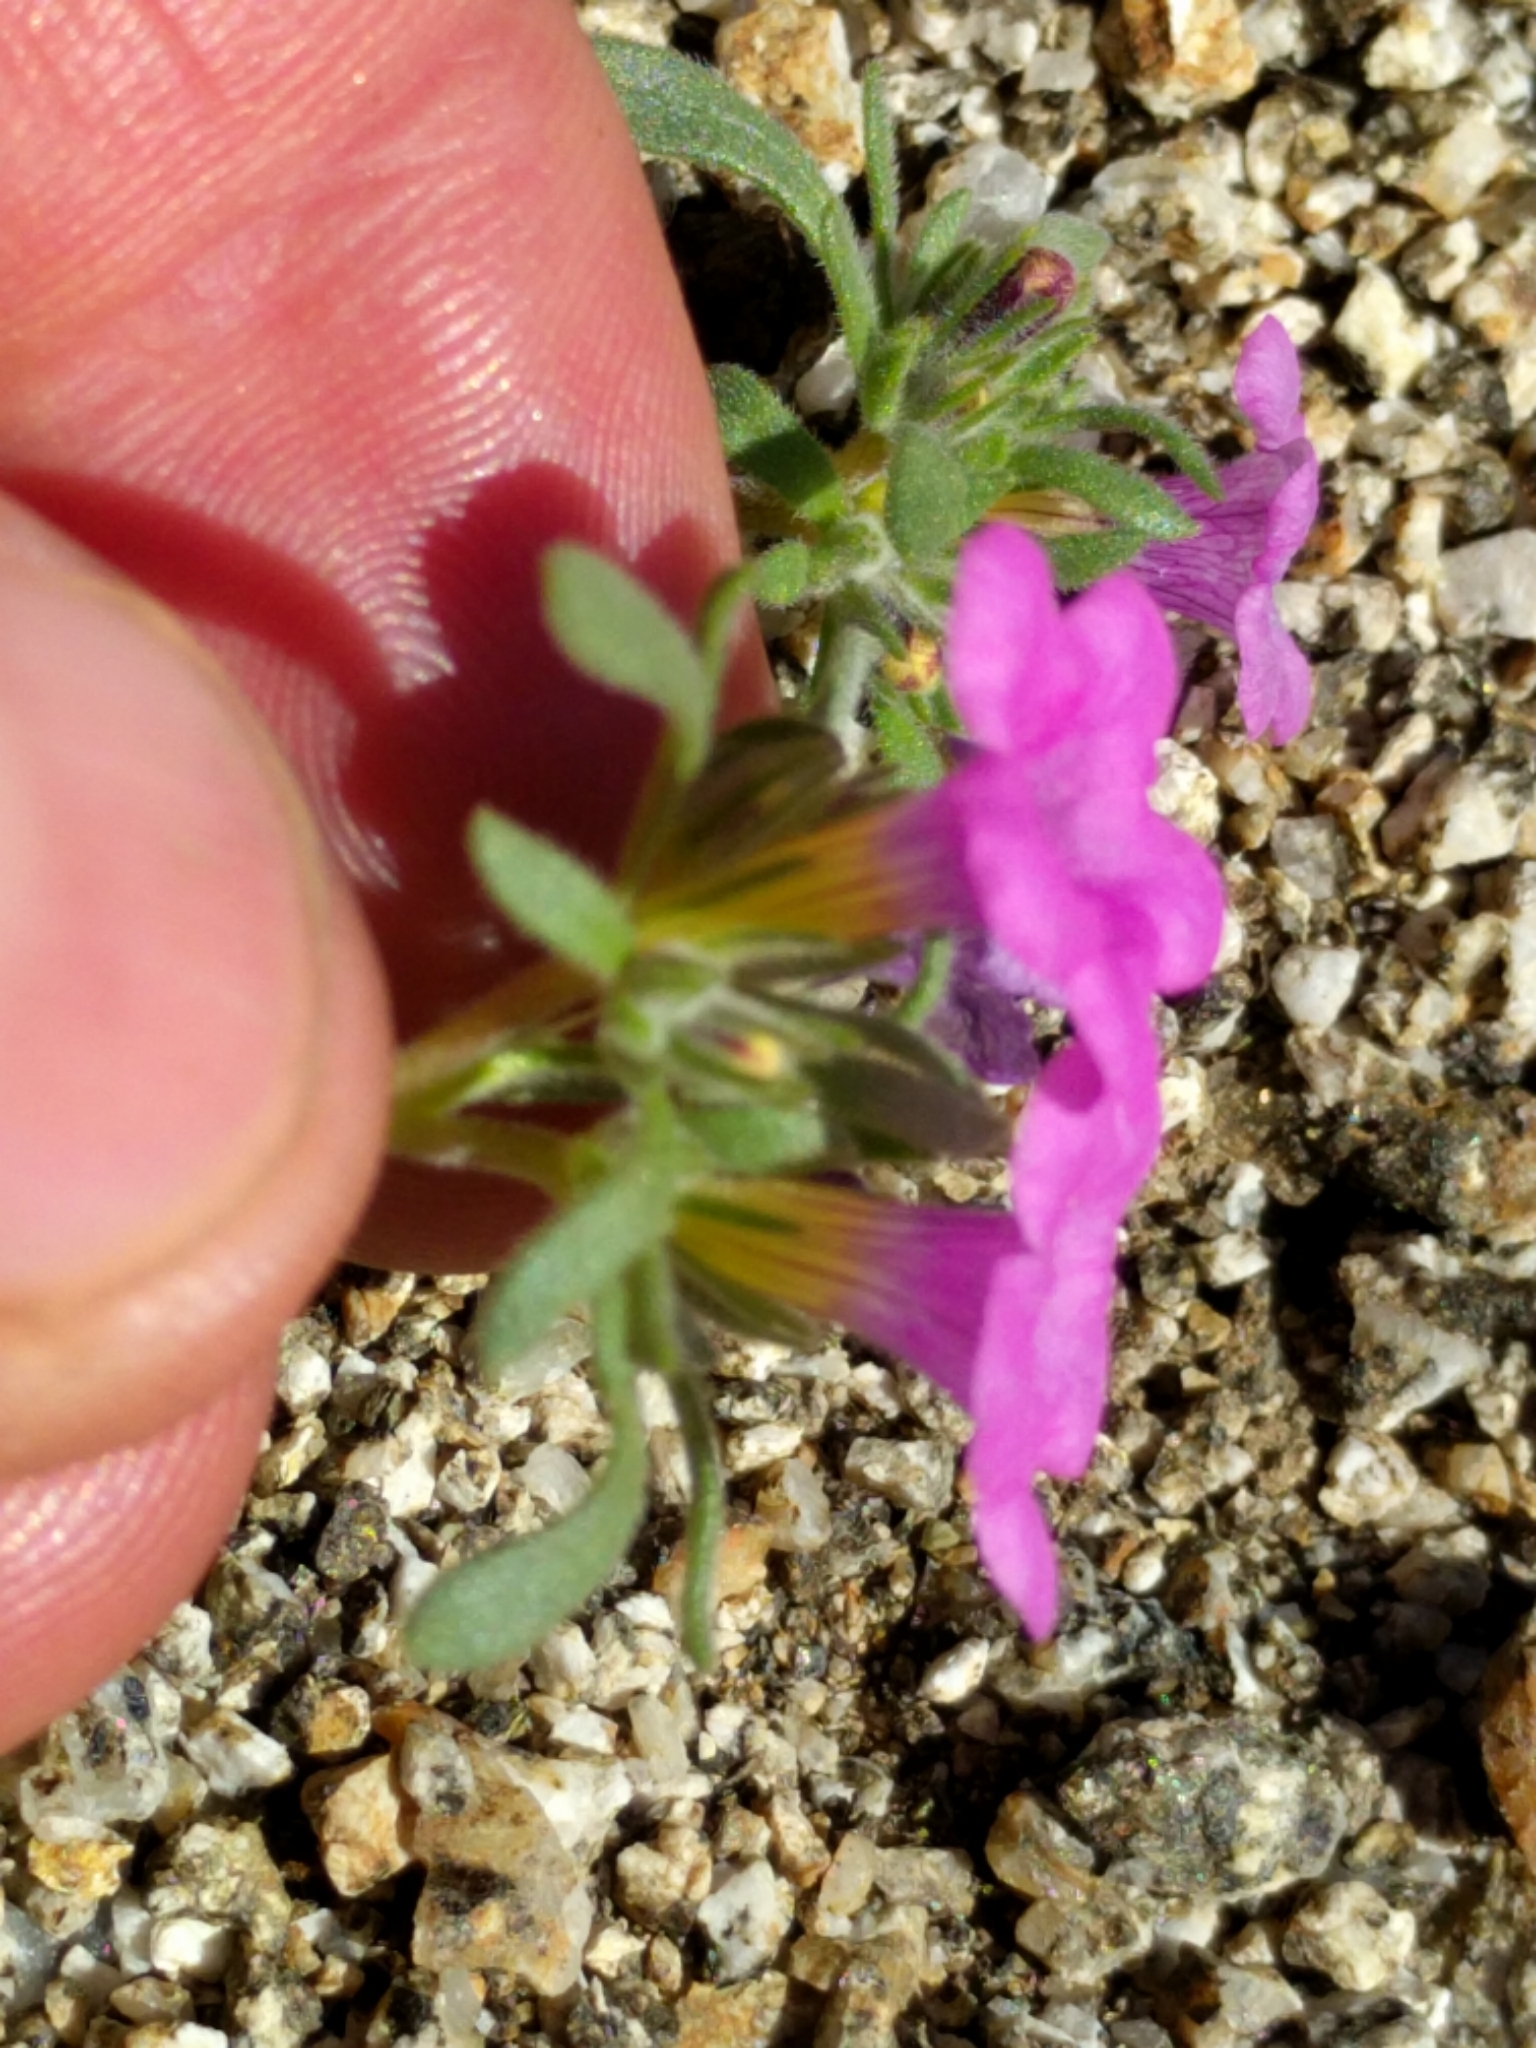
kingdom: Plantae
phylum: Tracheophyta
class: Magnoliopsida
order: Boraginales
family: Namaceae
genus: Nama
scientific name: Nama demissa
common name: Leafy nama
